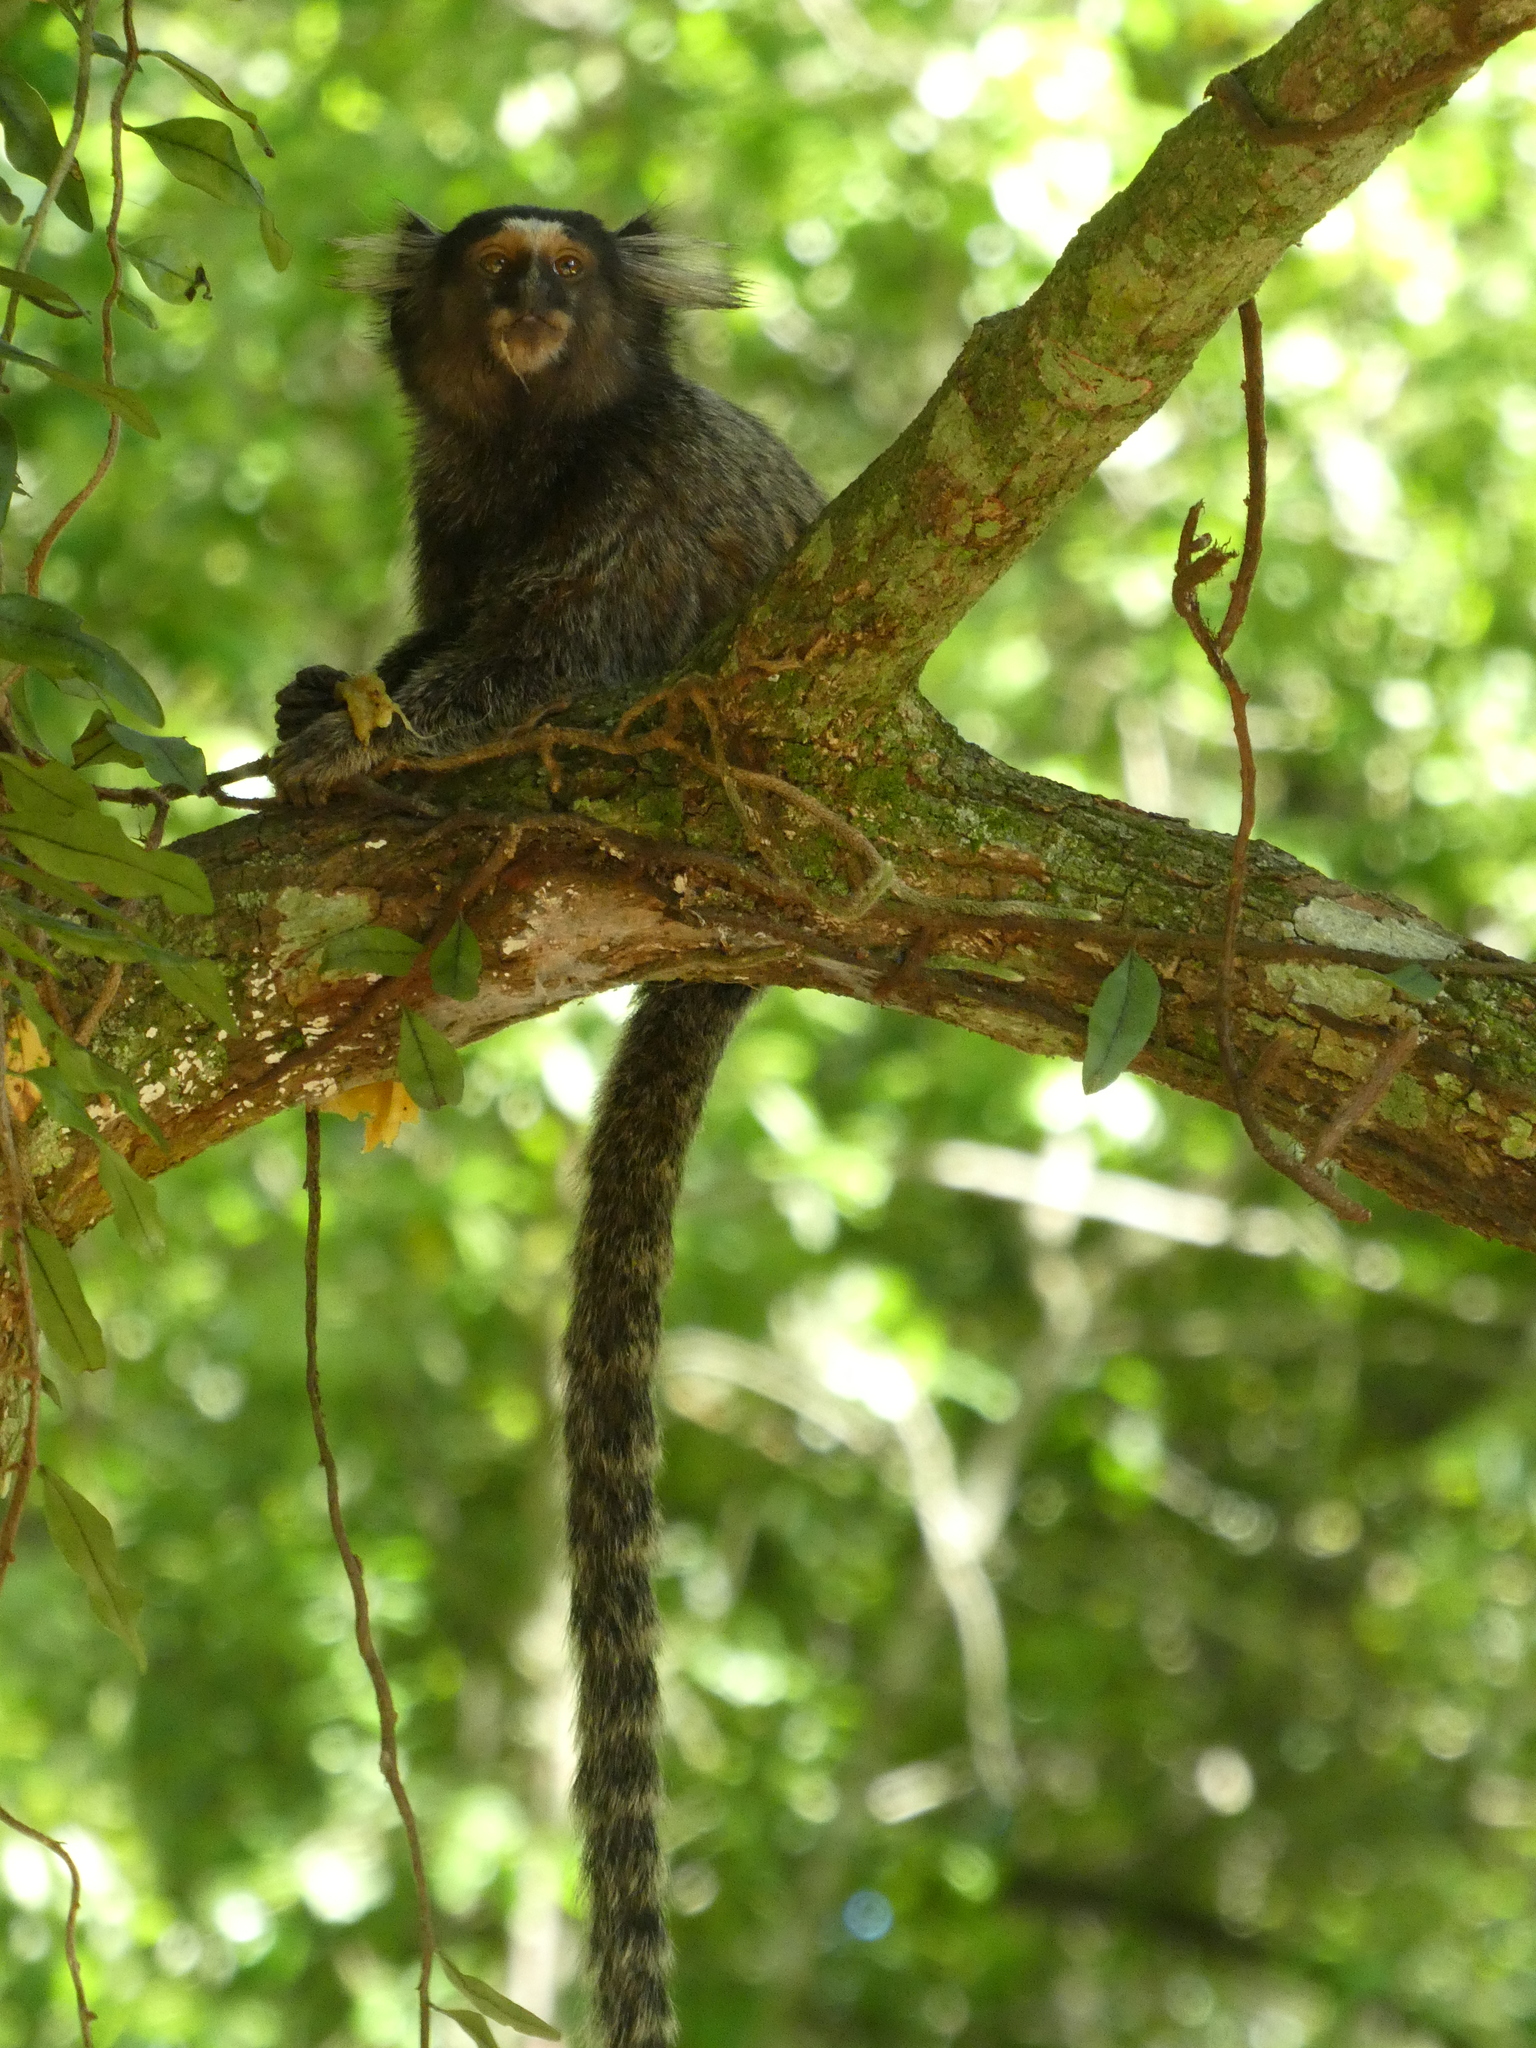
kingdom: Animalia
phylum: Chordata
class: Mammalia
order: Primates
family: Callitrichidae
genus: Callithrix
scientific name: Callithrix penicillata
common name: Black-tufted marmoset
